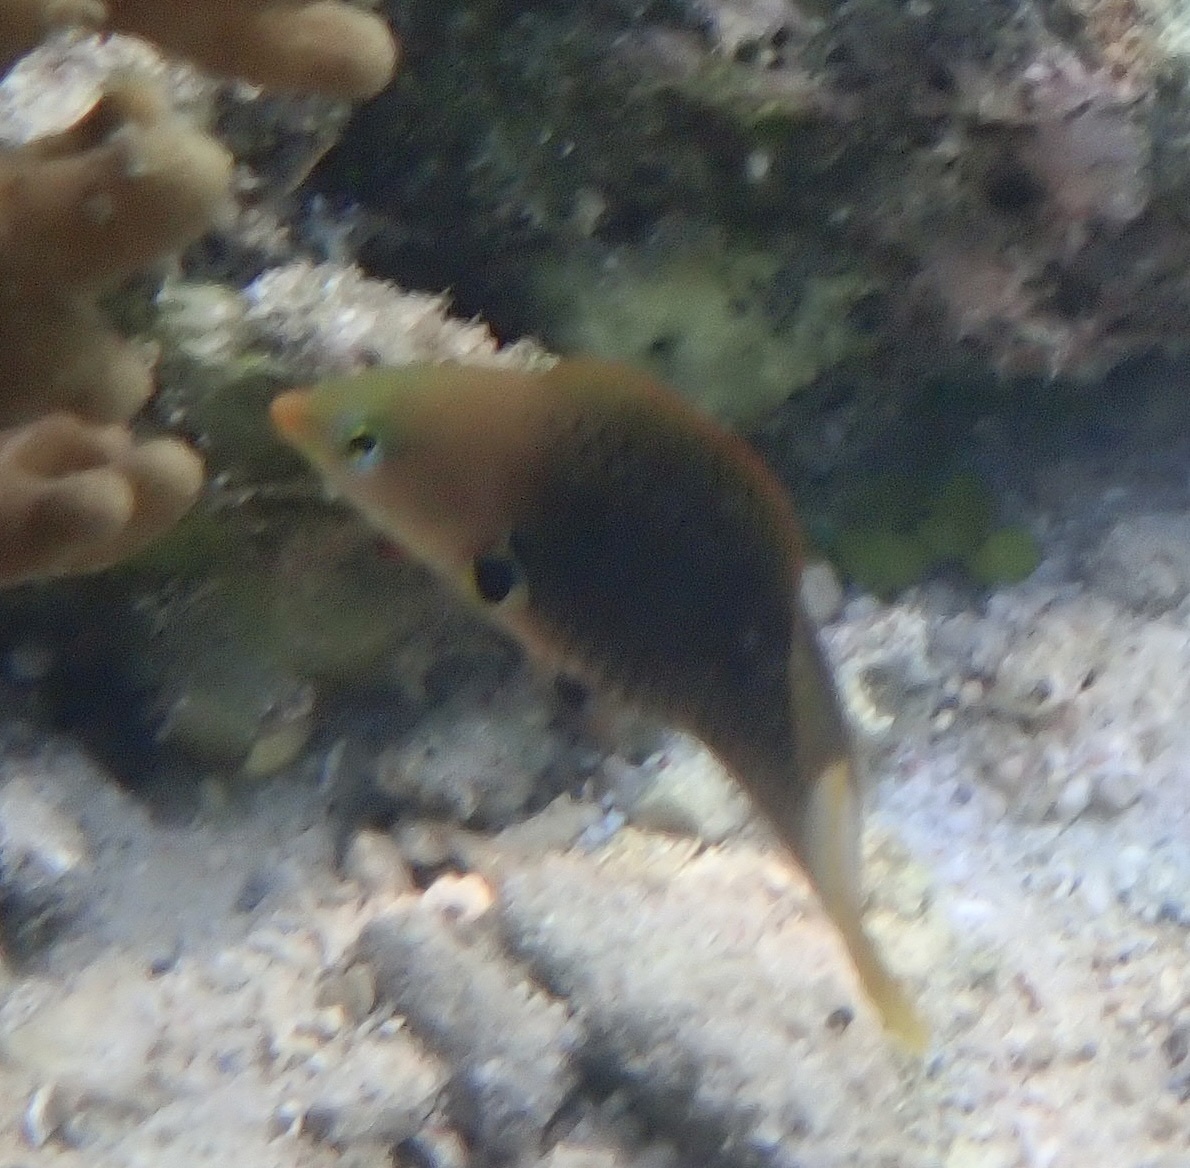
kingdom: Animalia
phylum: Chordata
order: Perciformes
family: Labridae
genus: Halichoeres
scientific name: Halichoeres podostigma
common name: Axil spot wrasse
